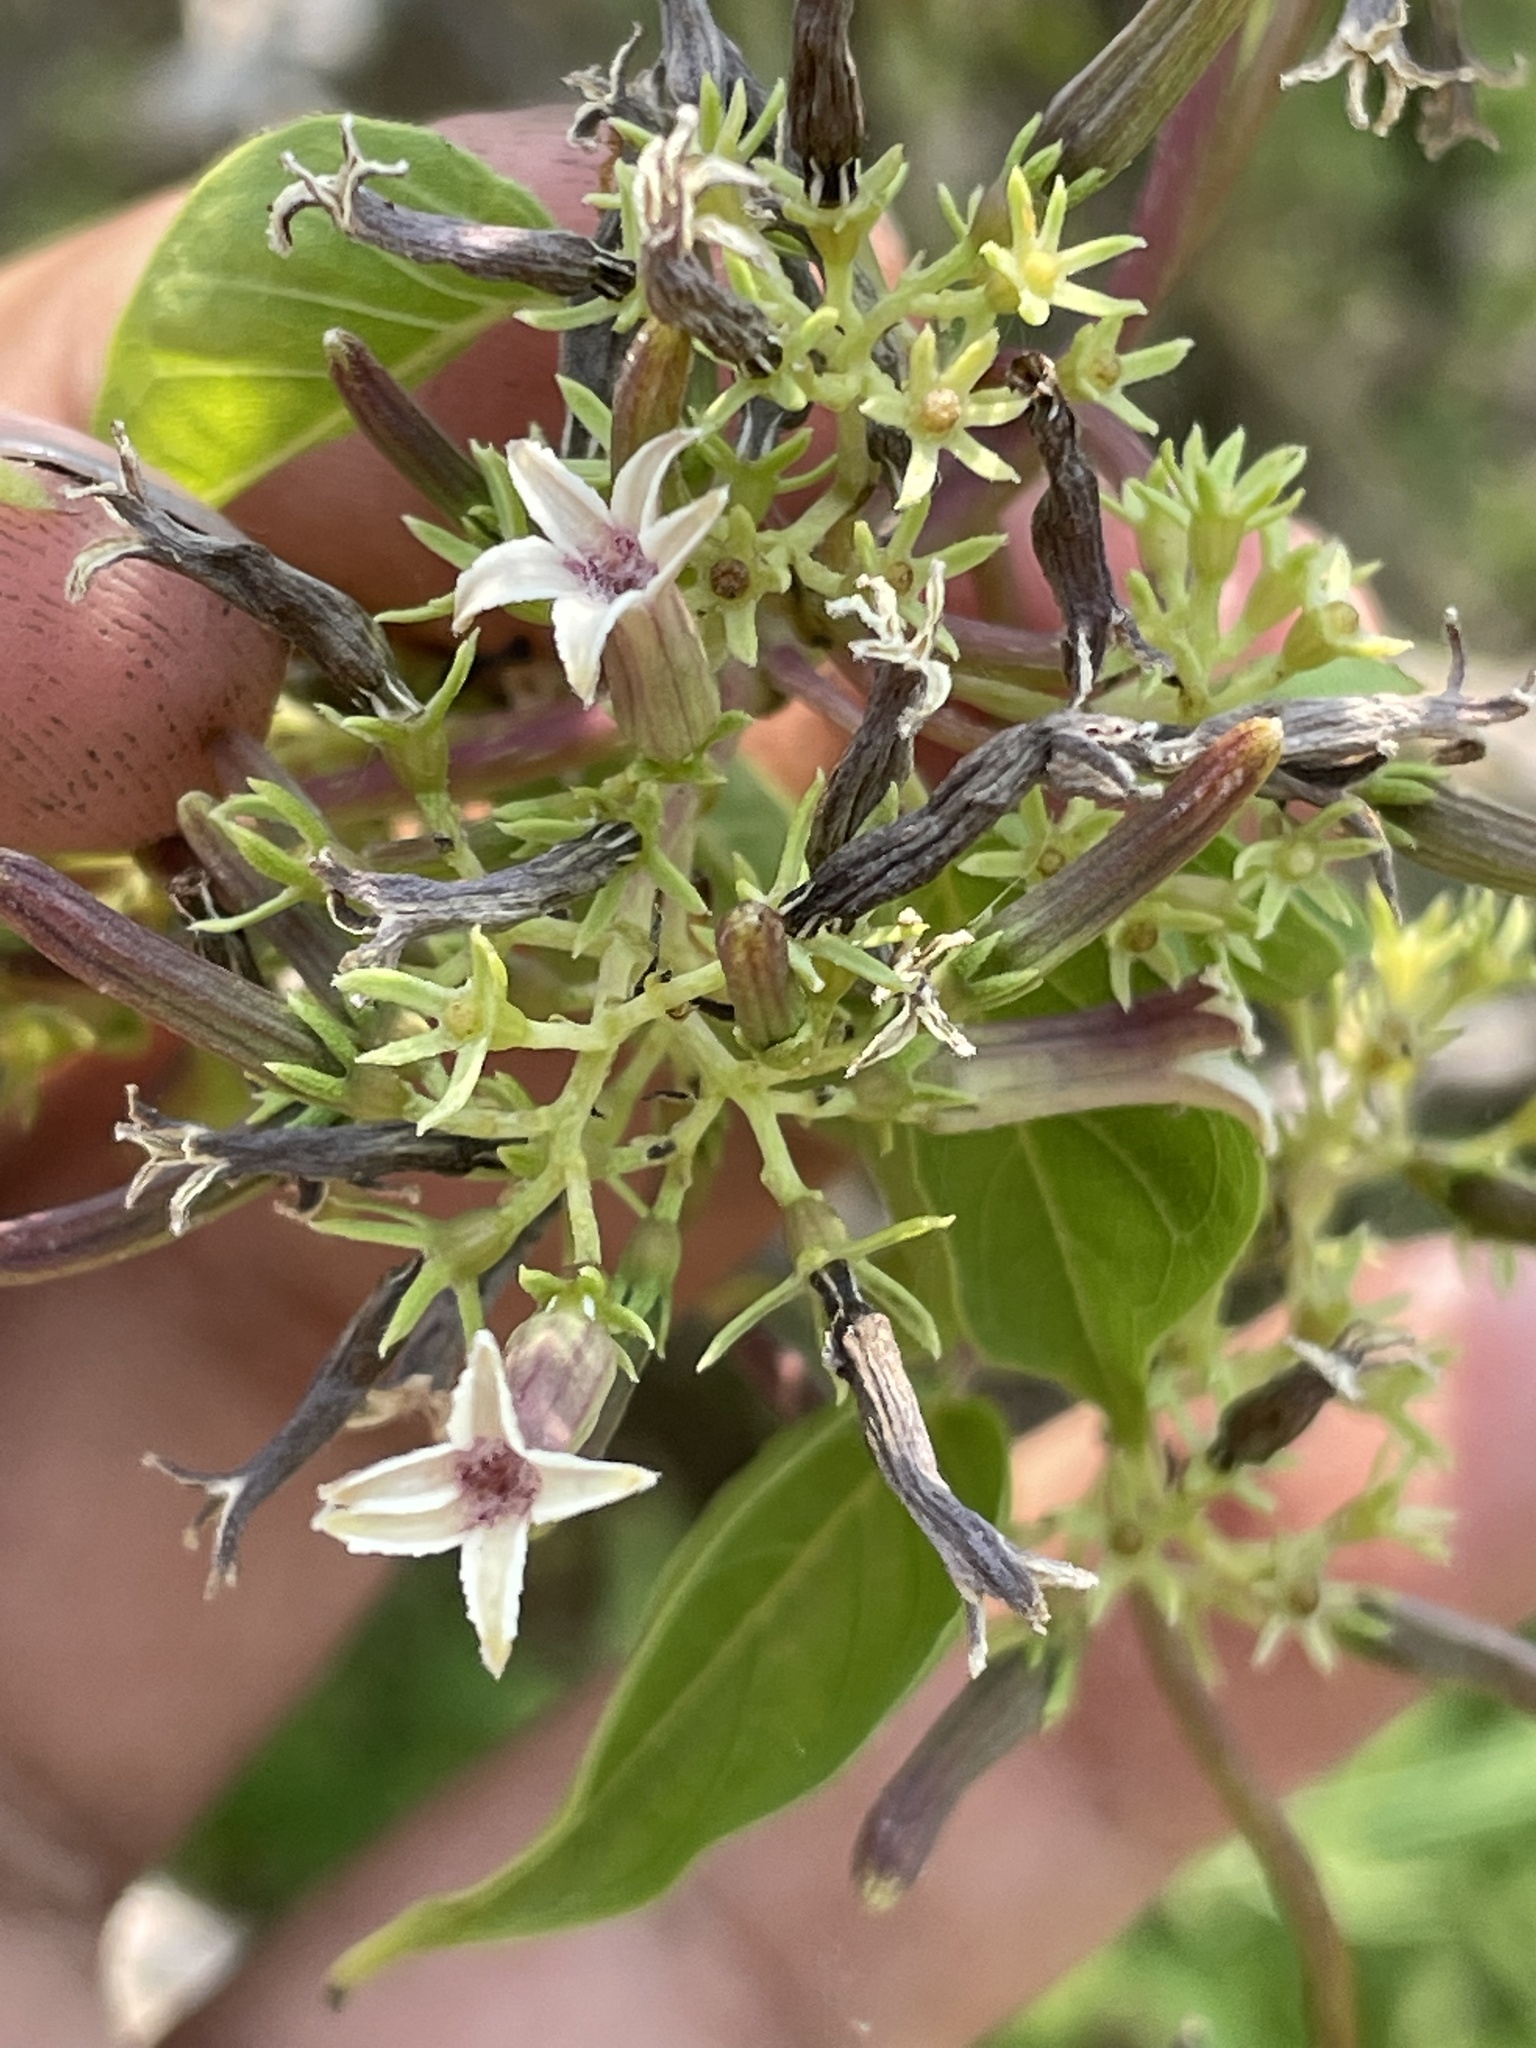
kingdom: Plantae
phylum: Tracheophyta
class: Magnoliopsida
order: Gentianales
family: Rubiaceae
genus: Paederia
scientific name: Paederia ciliata
